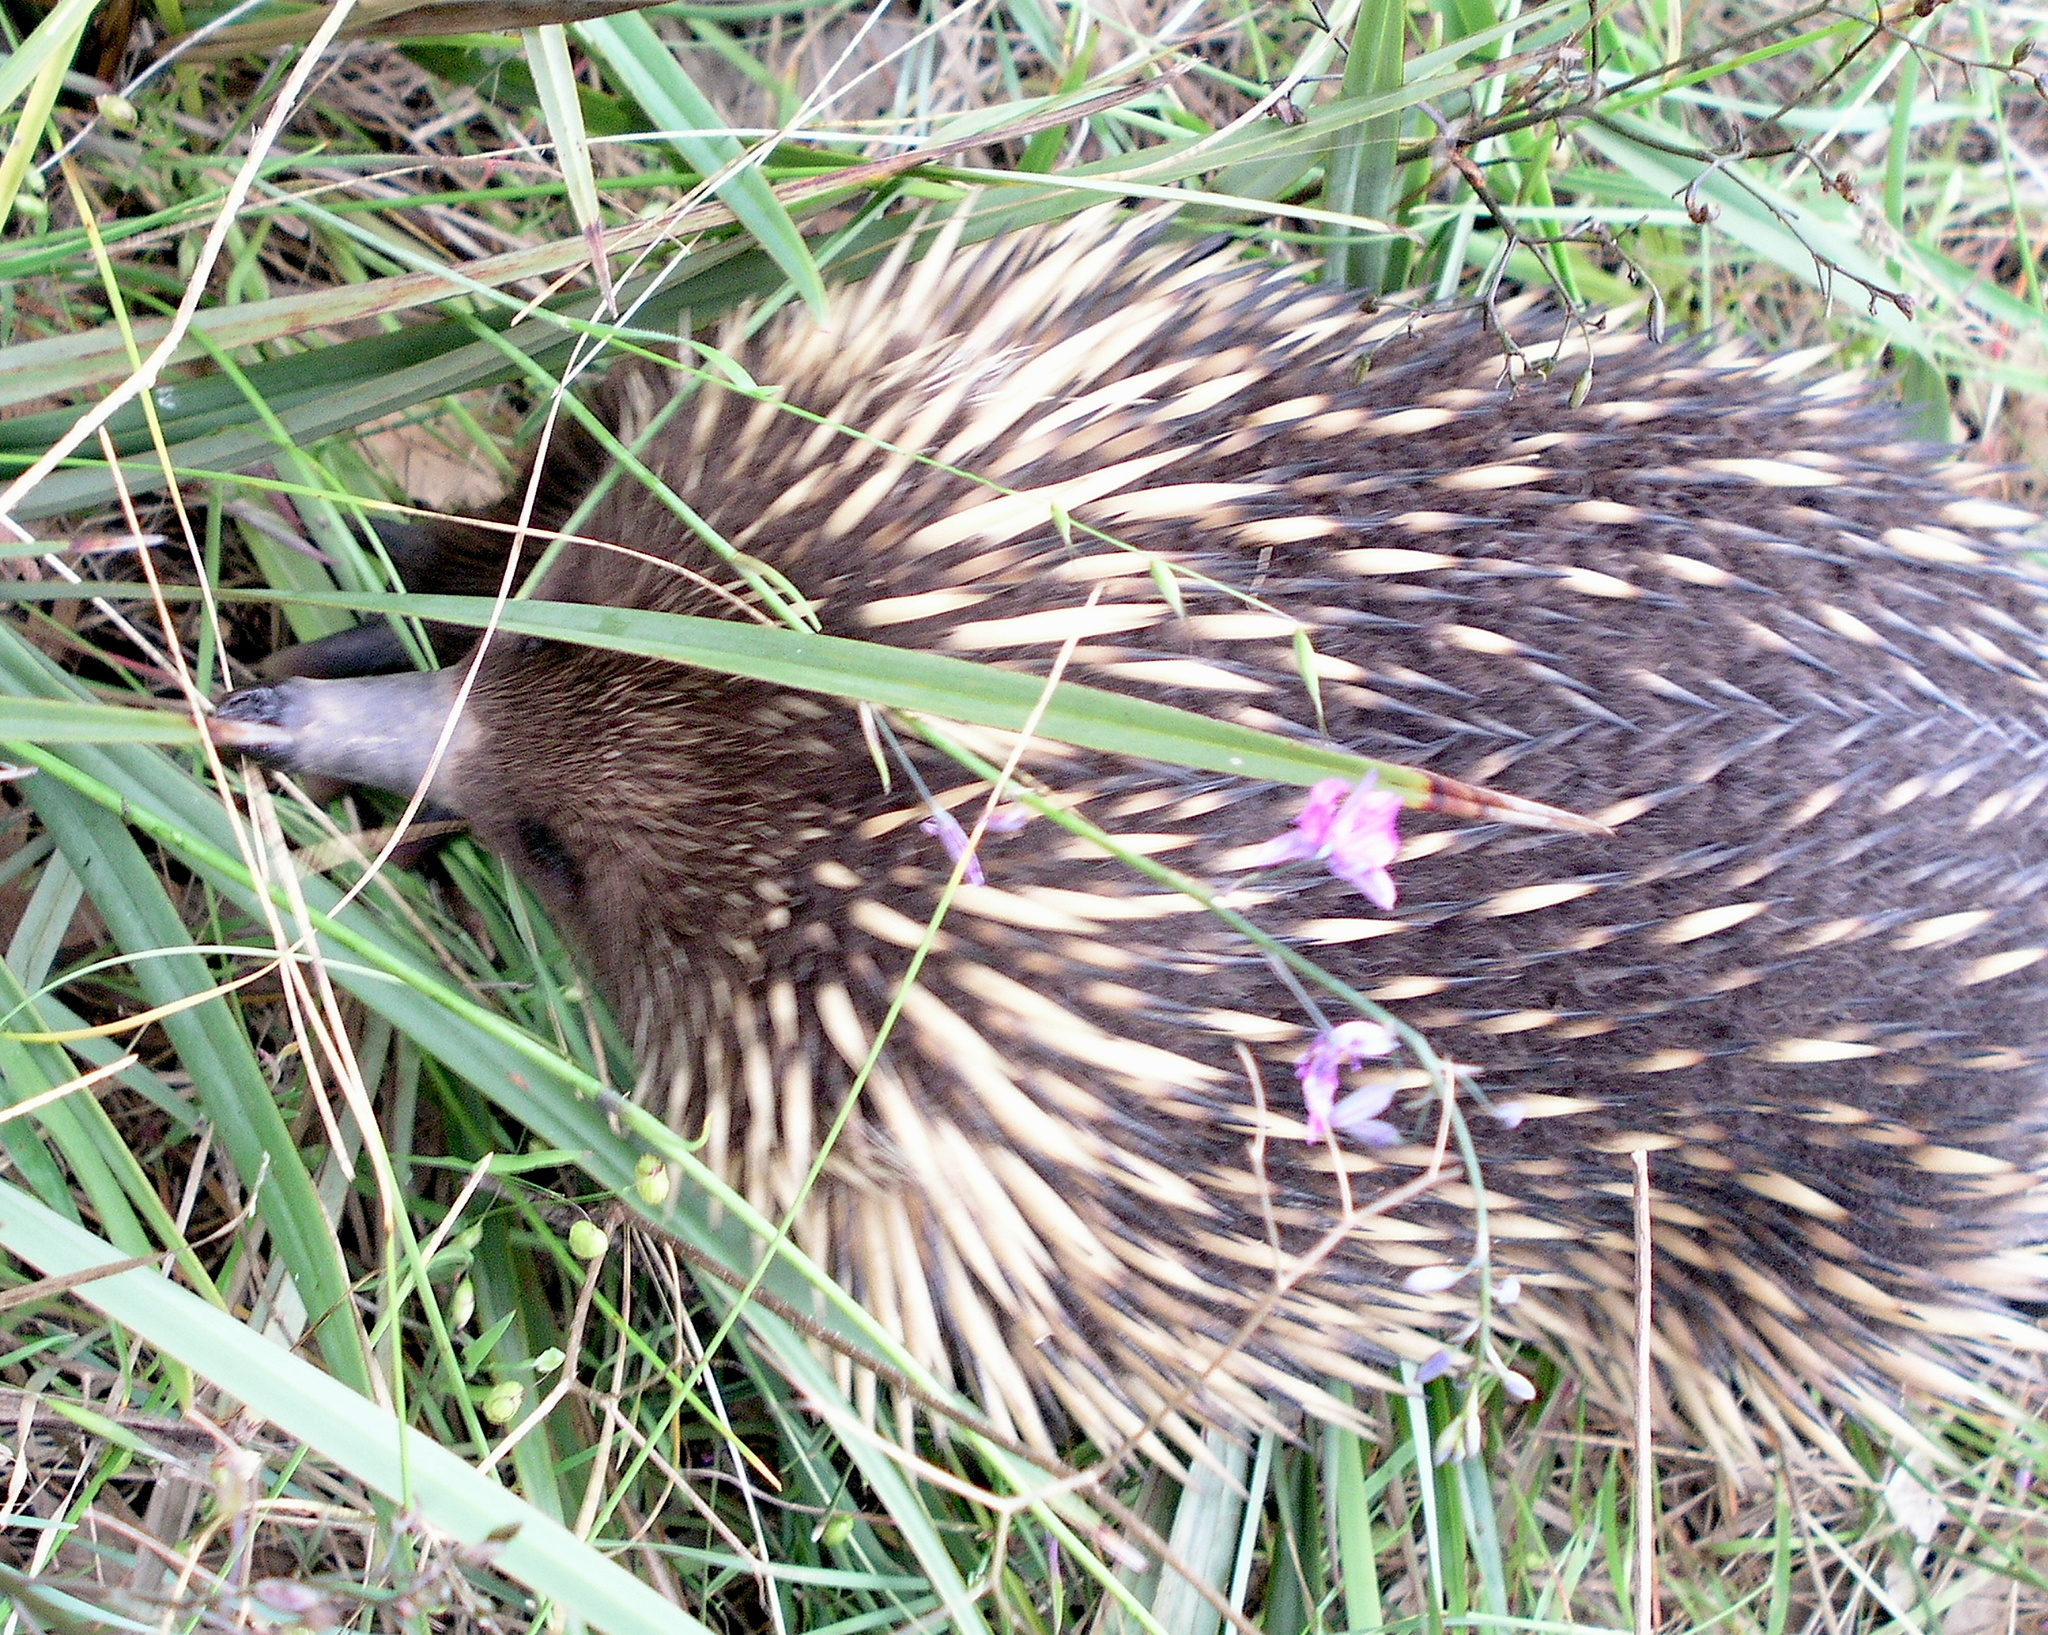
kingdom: Animalia
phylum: Chordata
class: Mammalia
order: Monotremata
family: Tachyglossidae
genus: Tachyglossus
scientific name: Tachyglossus aculeatus
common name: Short-beaked echidna
